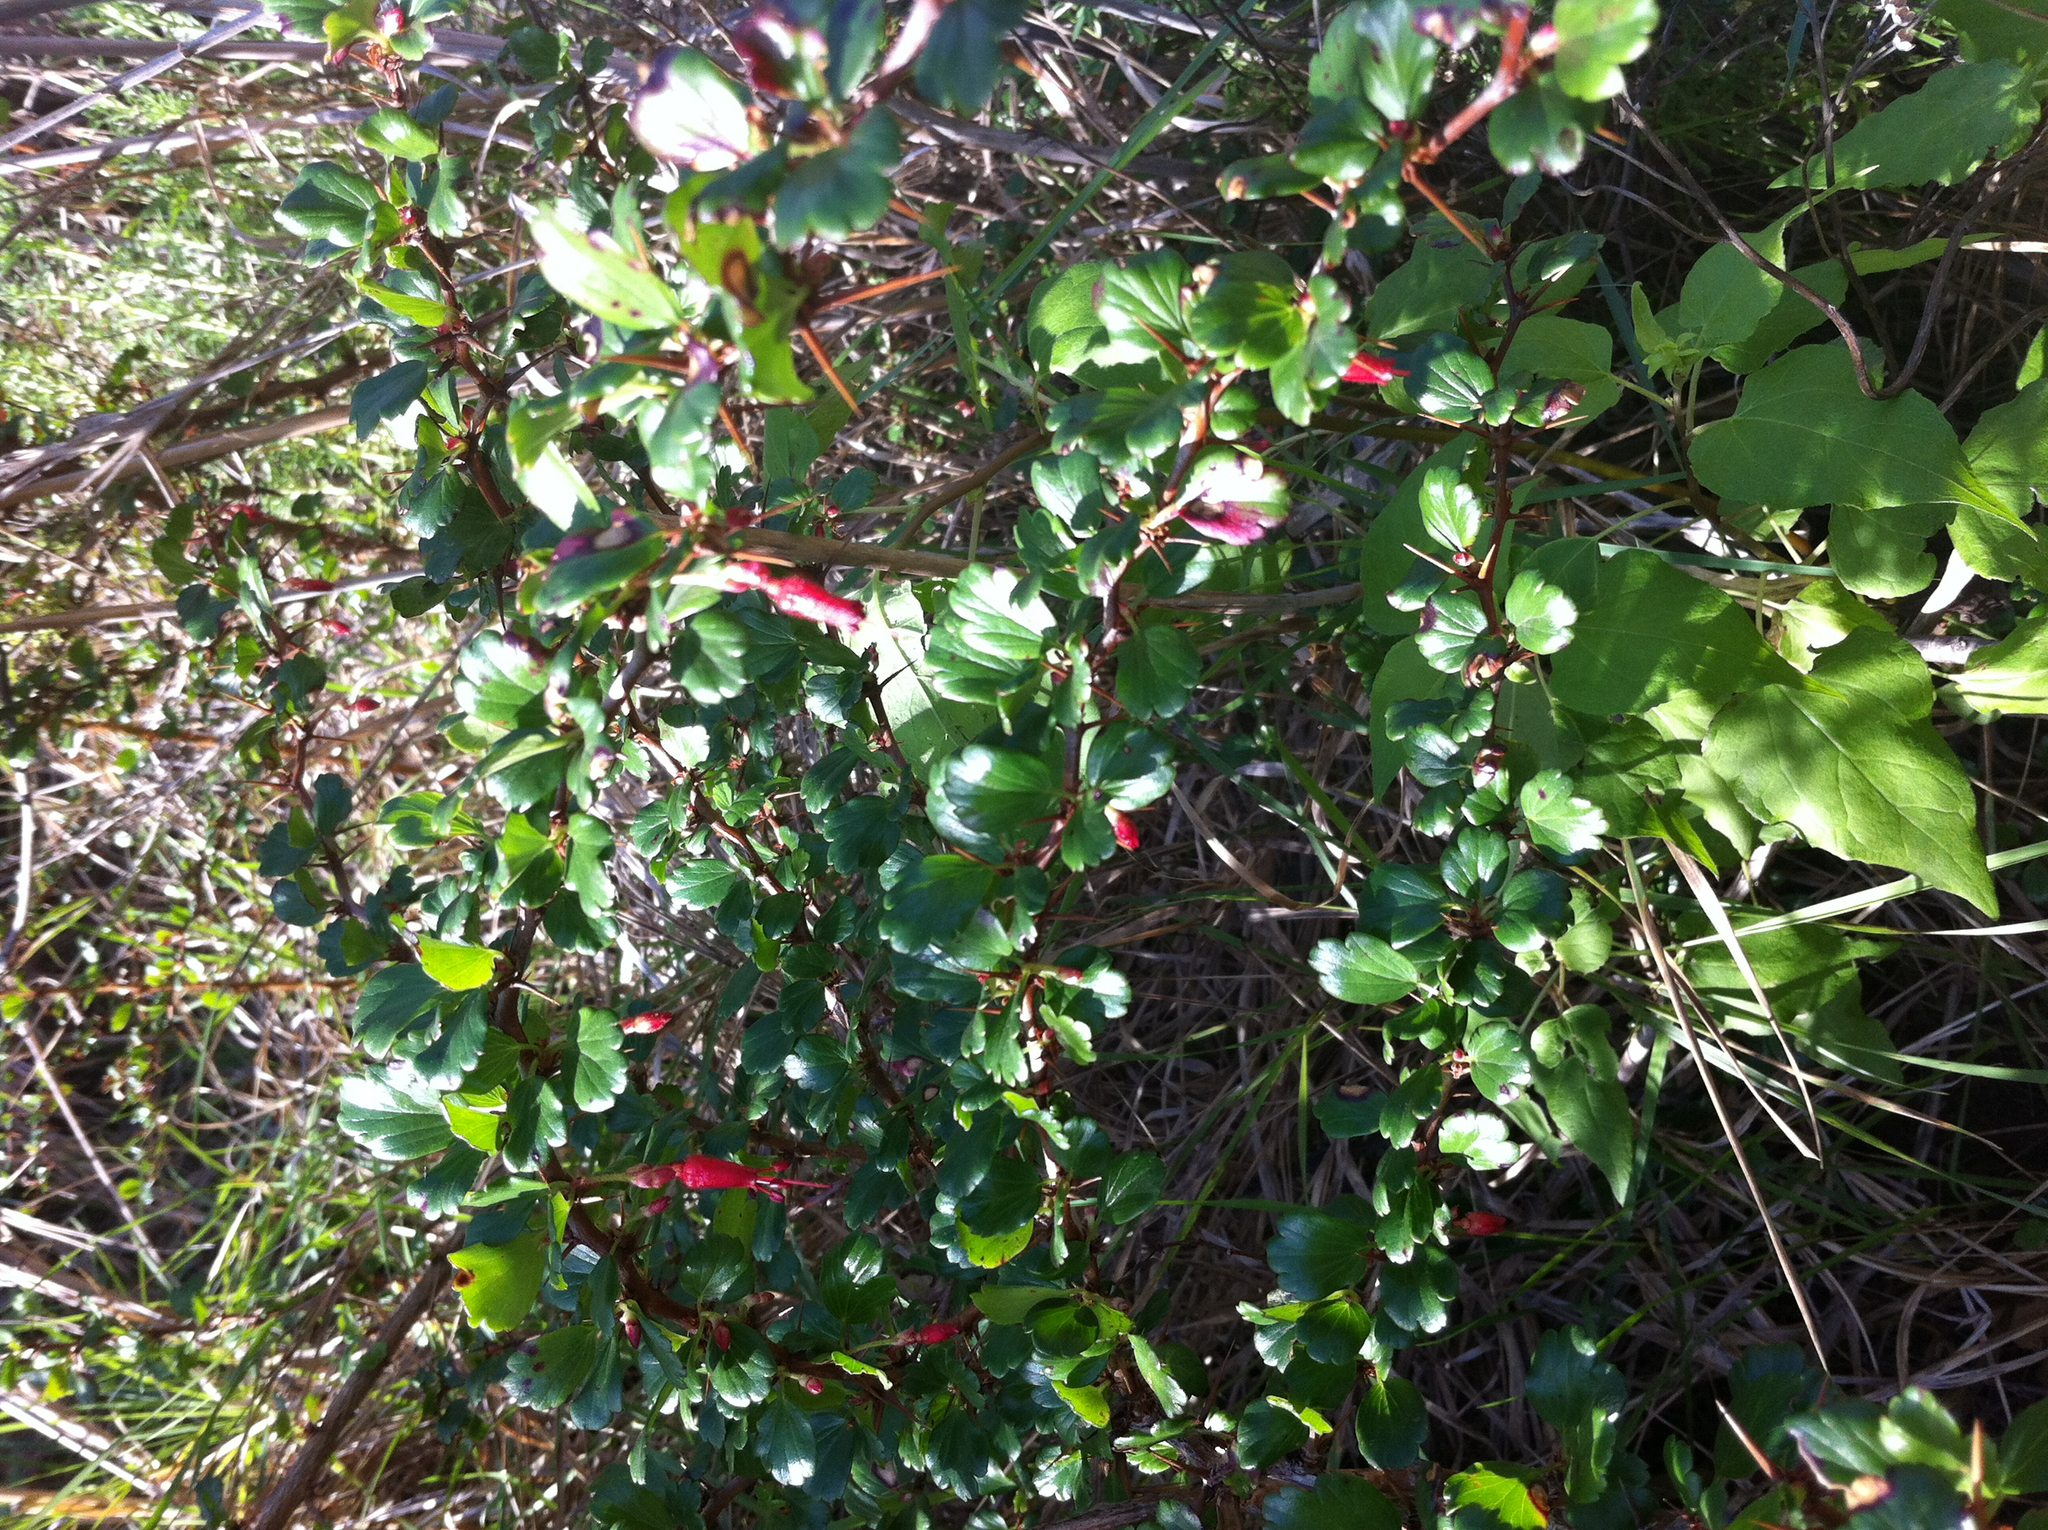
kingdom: Plantae
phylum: Tracheophyta
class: Magnoliopsida
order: Saxifragales
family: Grossulariaceae
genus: Ribes
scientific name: Ribes speciosum
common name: Fuchsia-flower gooseberry
